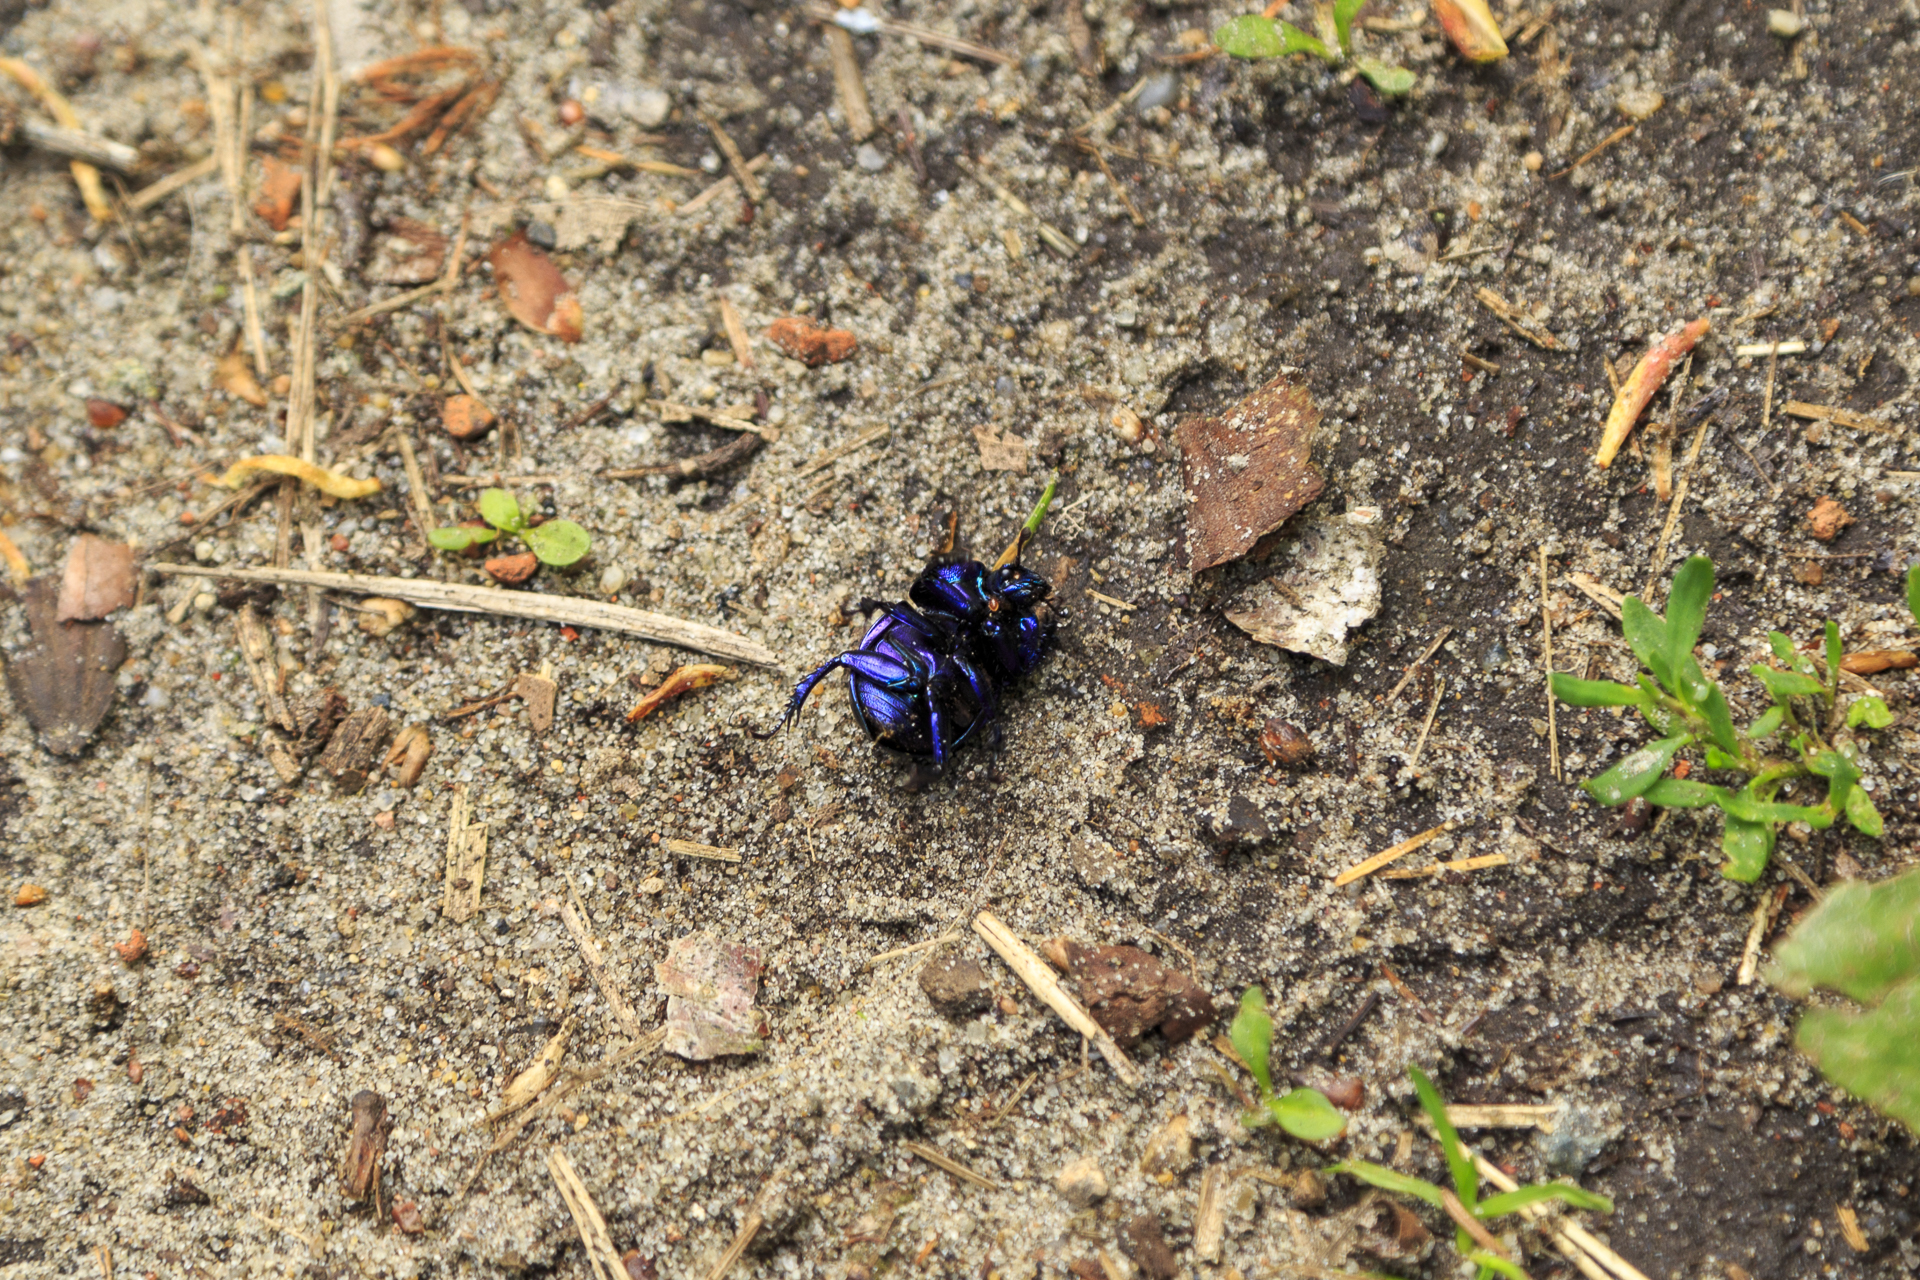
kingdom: Animalia
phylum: Arthropoda
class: Insecta
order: Coleoptera
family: Geotrupidae
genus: Trypocopris
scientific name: Trypocopris vernalis
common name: Spring dumbledor
